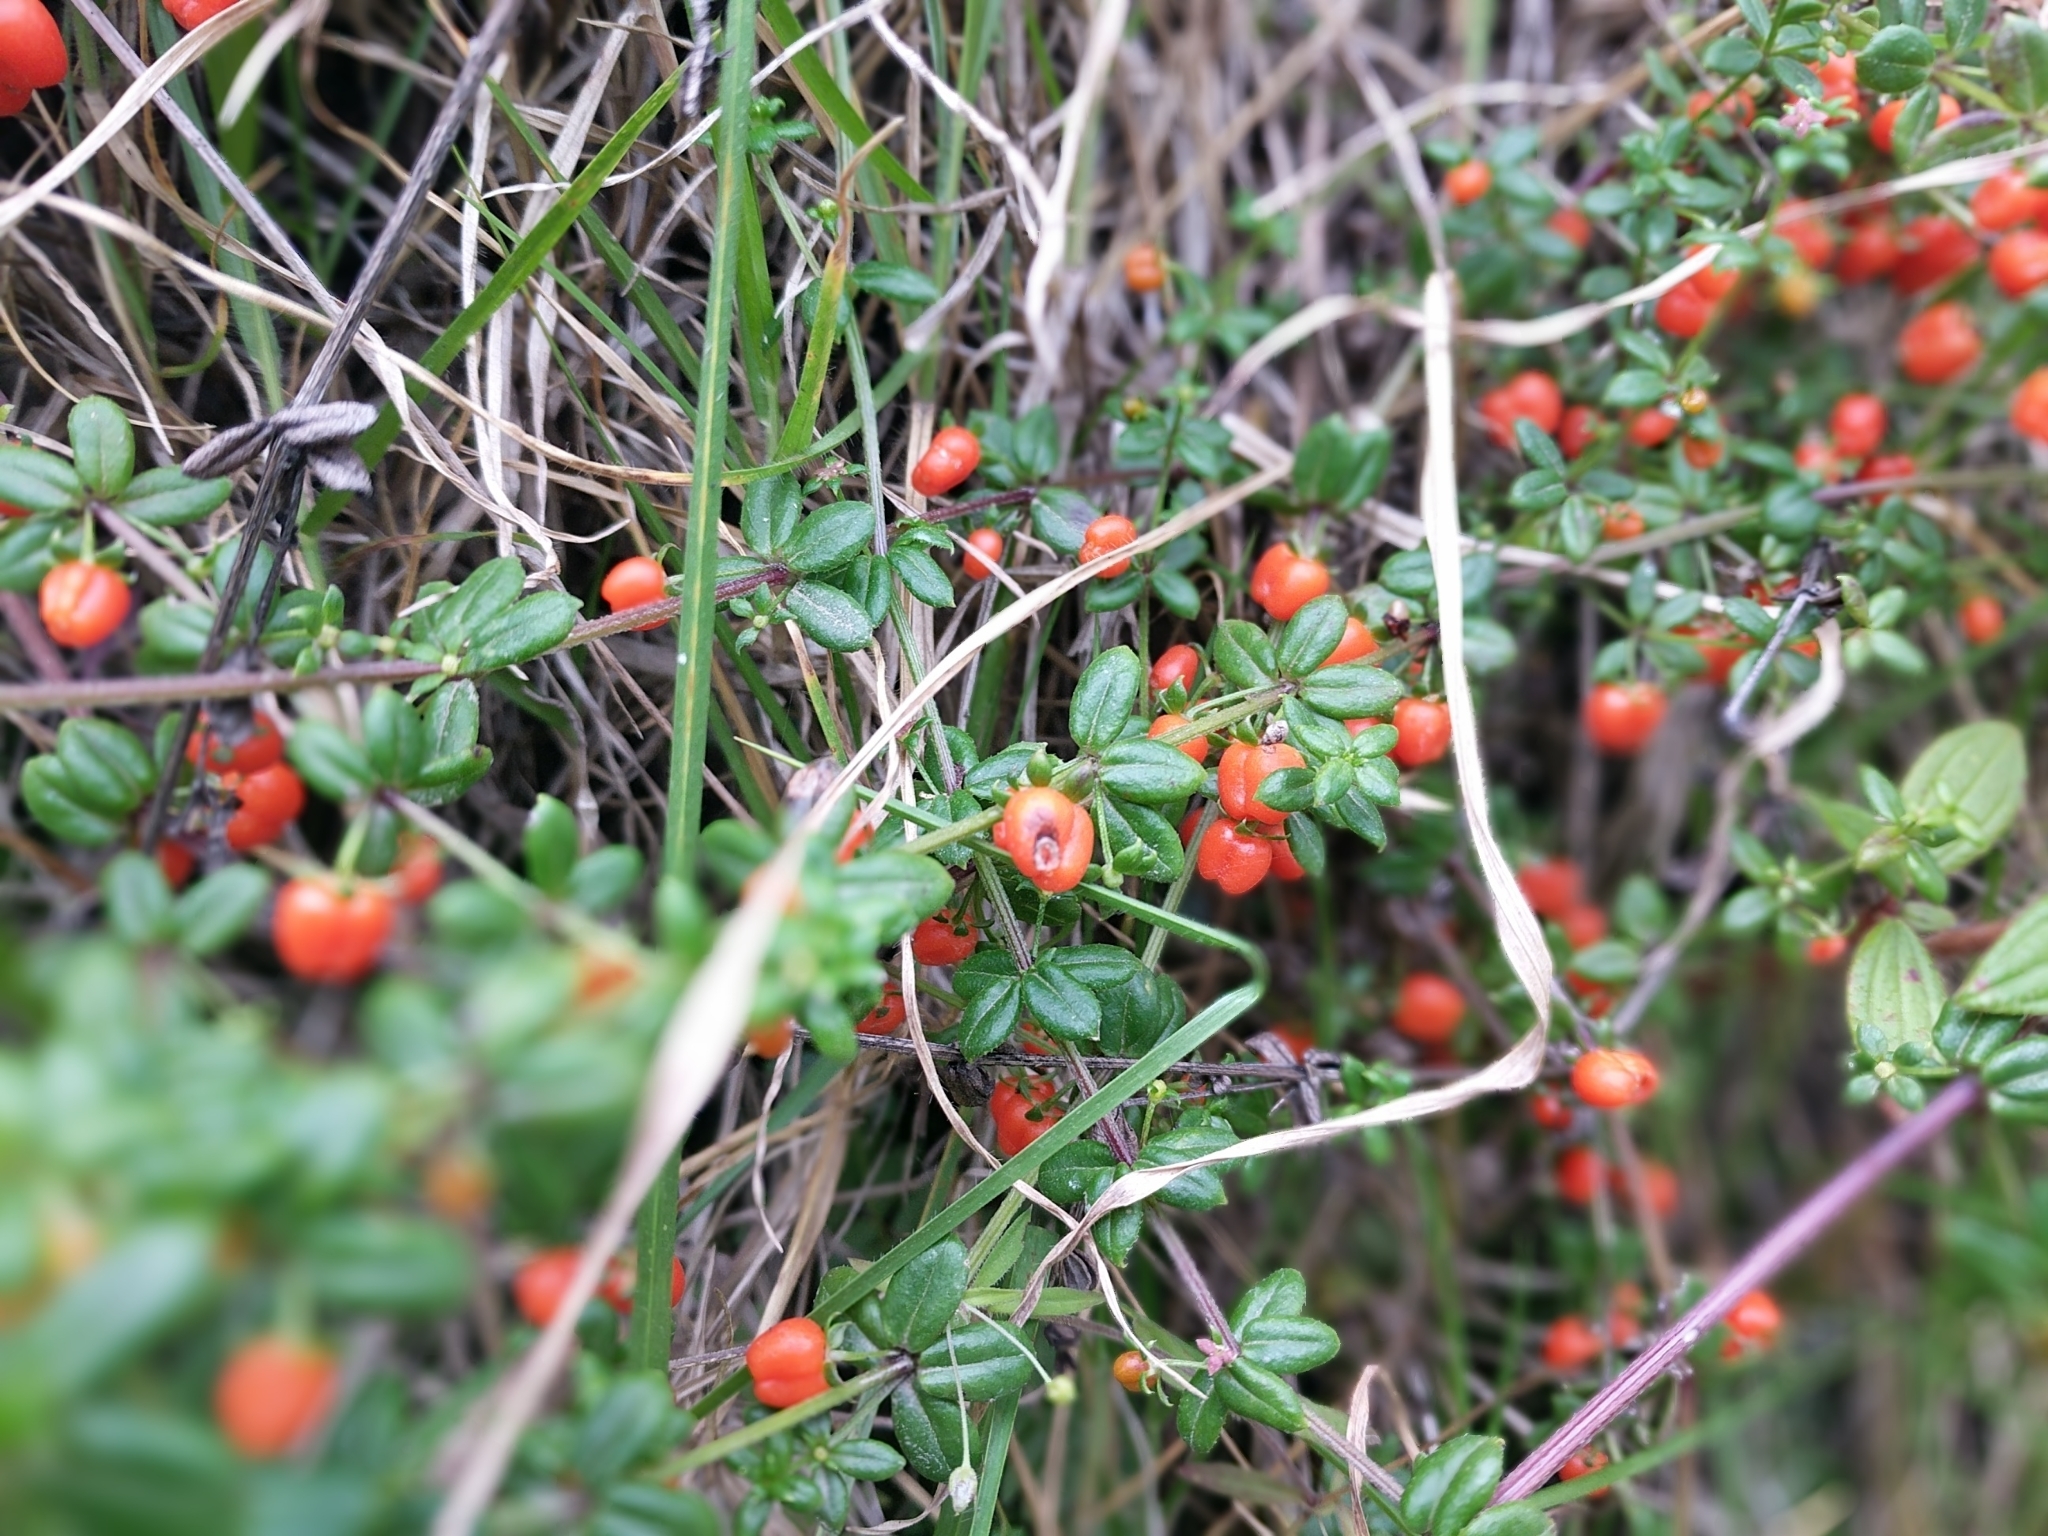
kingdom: Plantae
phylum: Tracheophyta
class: Magnoliopsida
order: Gentianales
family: Rubiaceae
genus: Galium
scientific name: Galium hypocarpium
